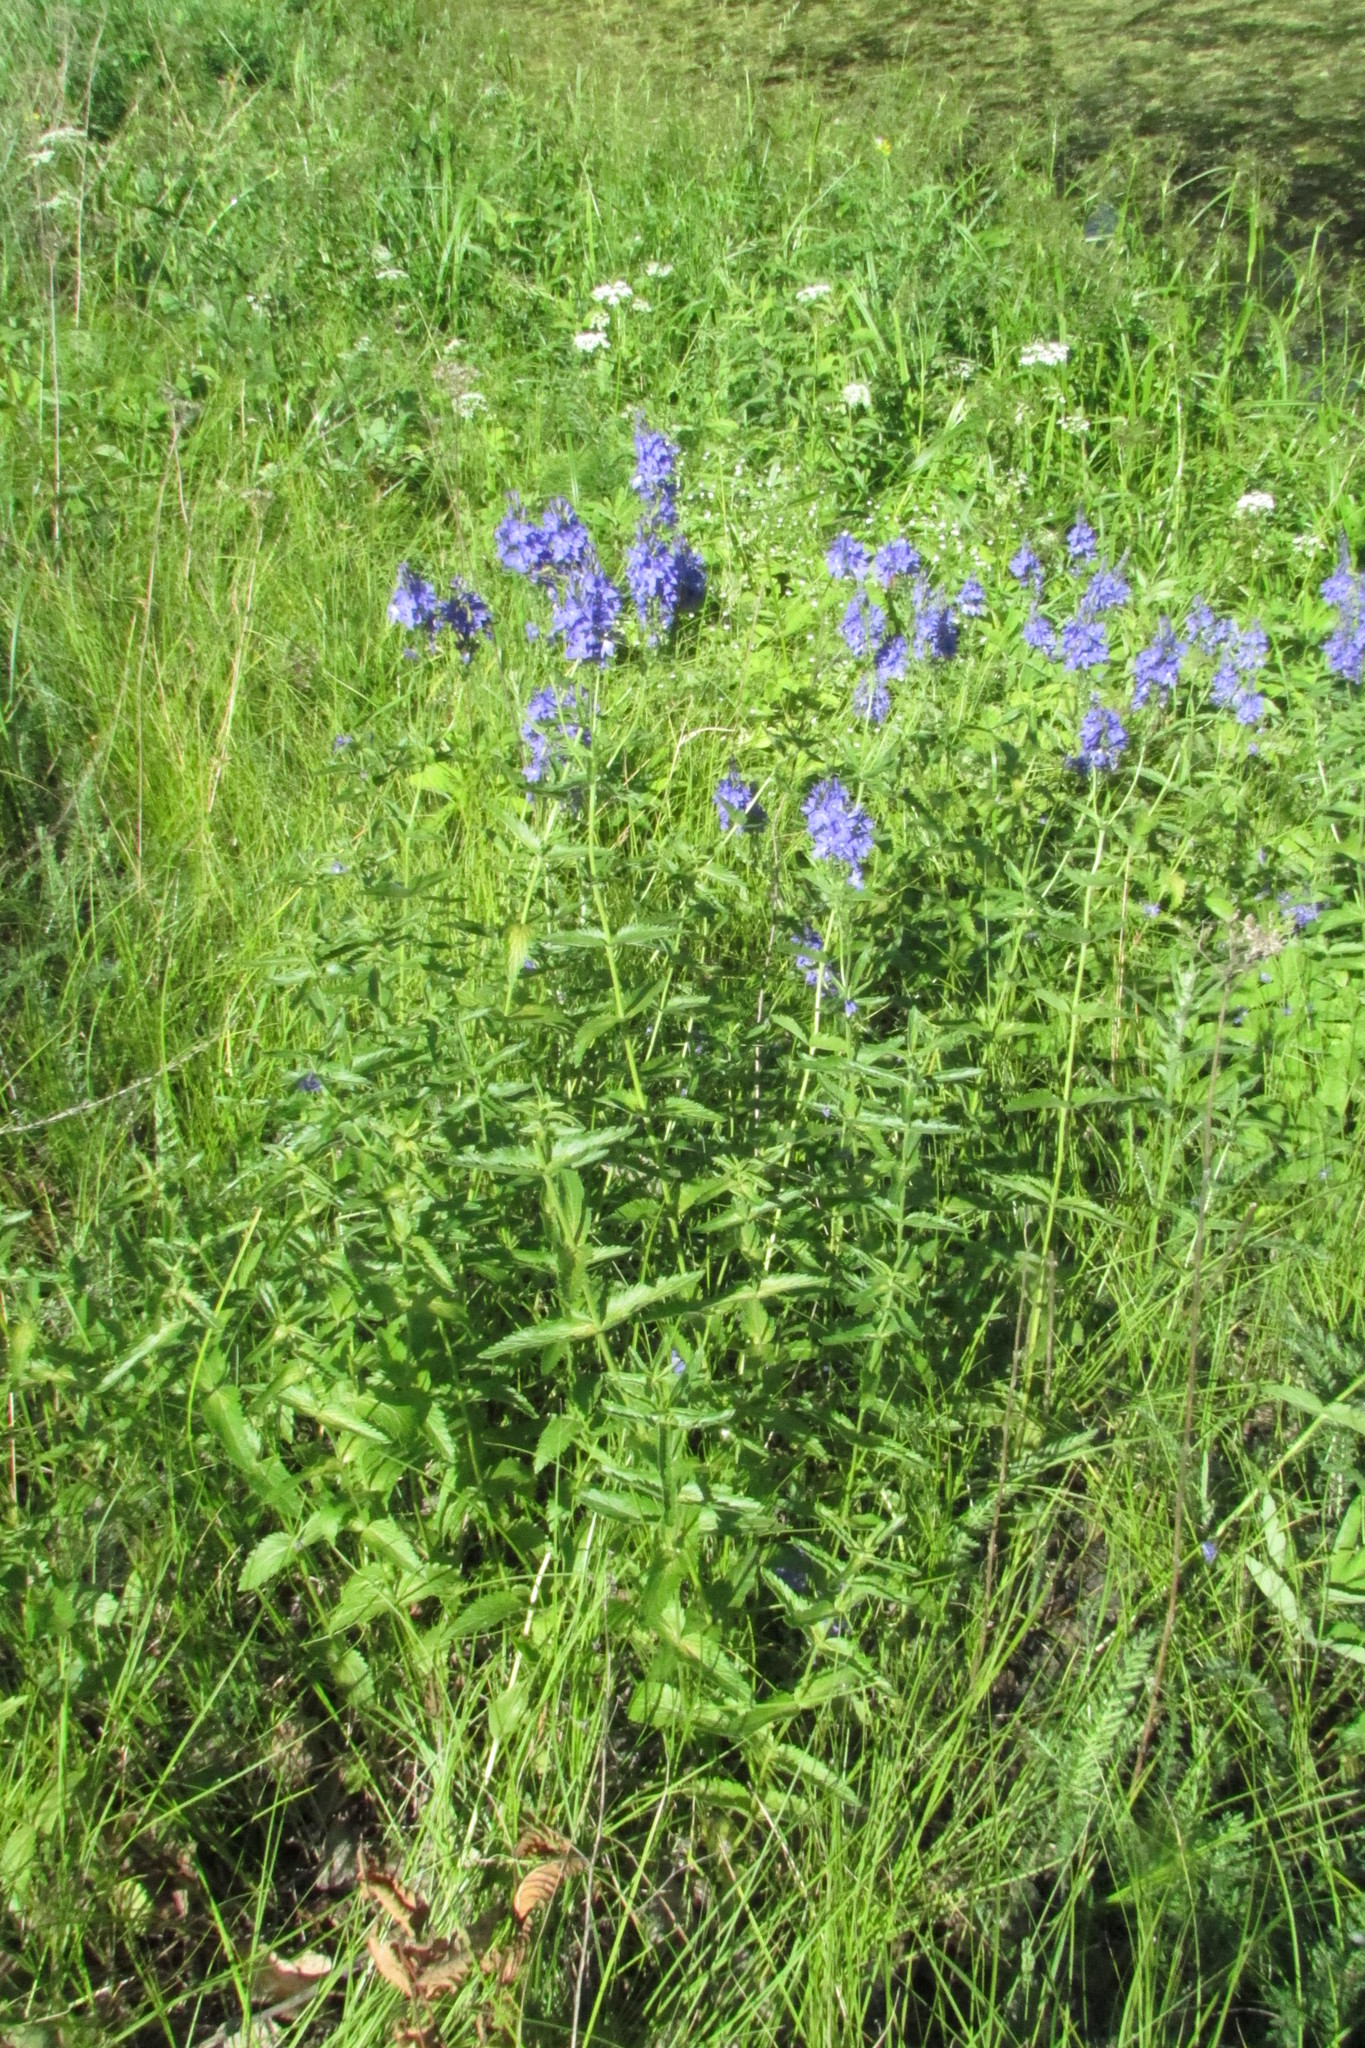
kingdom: Plantae
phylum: Tracheophyta
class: Magnoliopsida
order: Lamiales
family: Plantaginaceae
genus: Veronica
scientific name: Veronica teucrium
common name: Large speedwell
